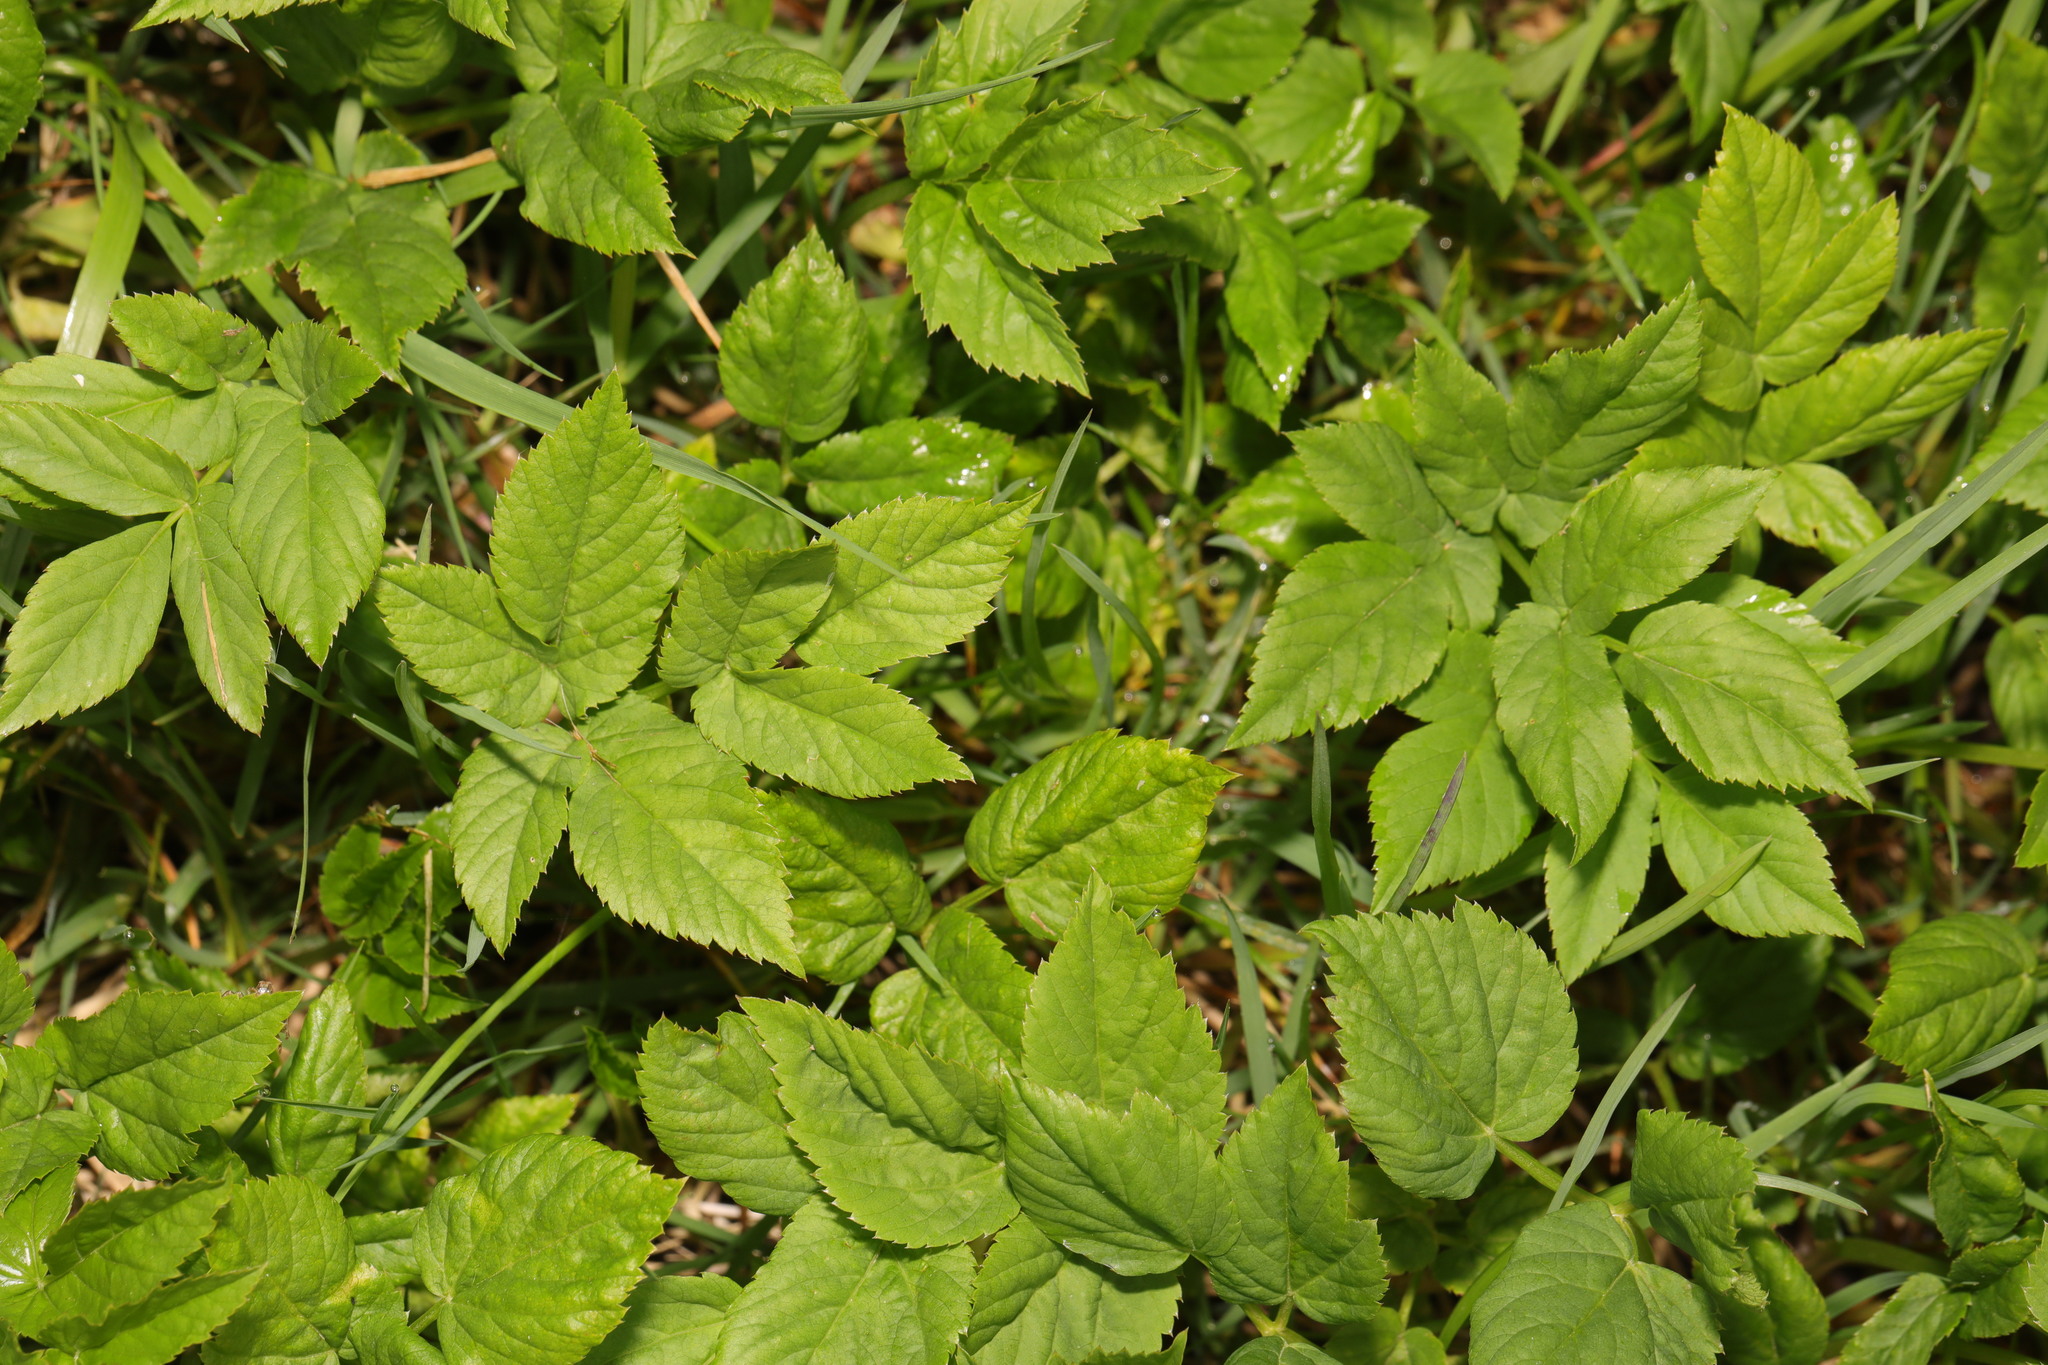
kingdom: Plantae
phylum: Tracheophyta
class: Magnoliopsida
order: Apiales
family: Apiaceae
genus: Aegopodium
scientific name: Aegopodium podagraria
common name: Ground-elder
